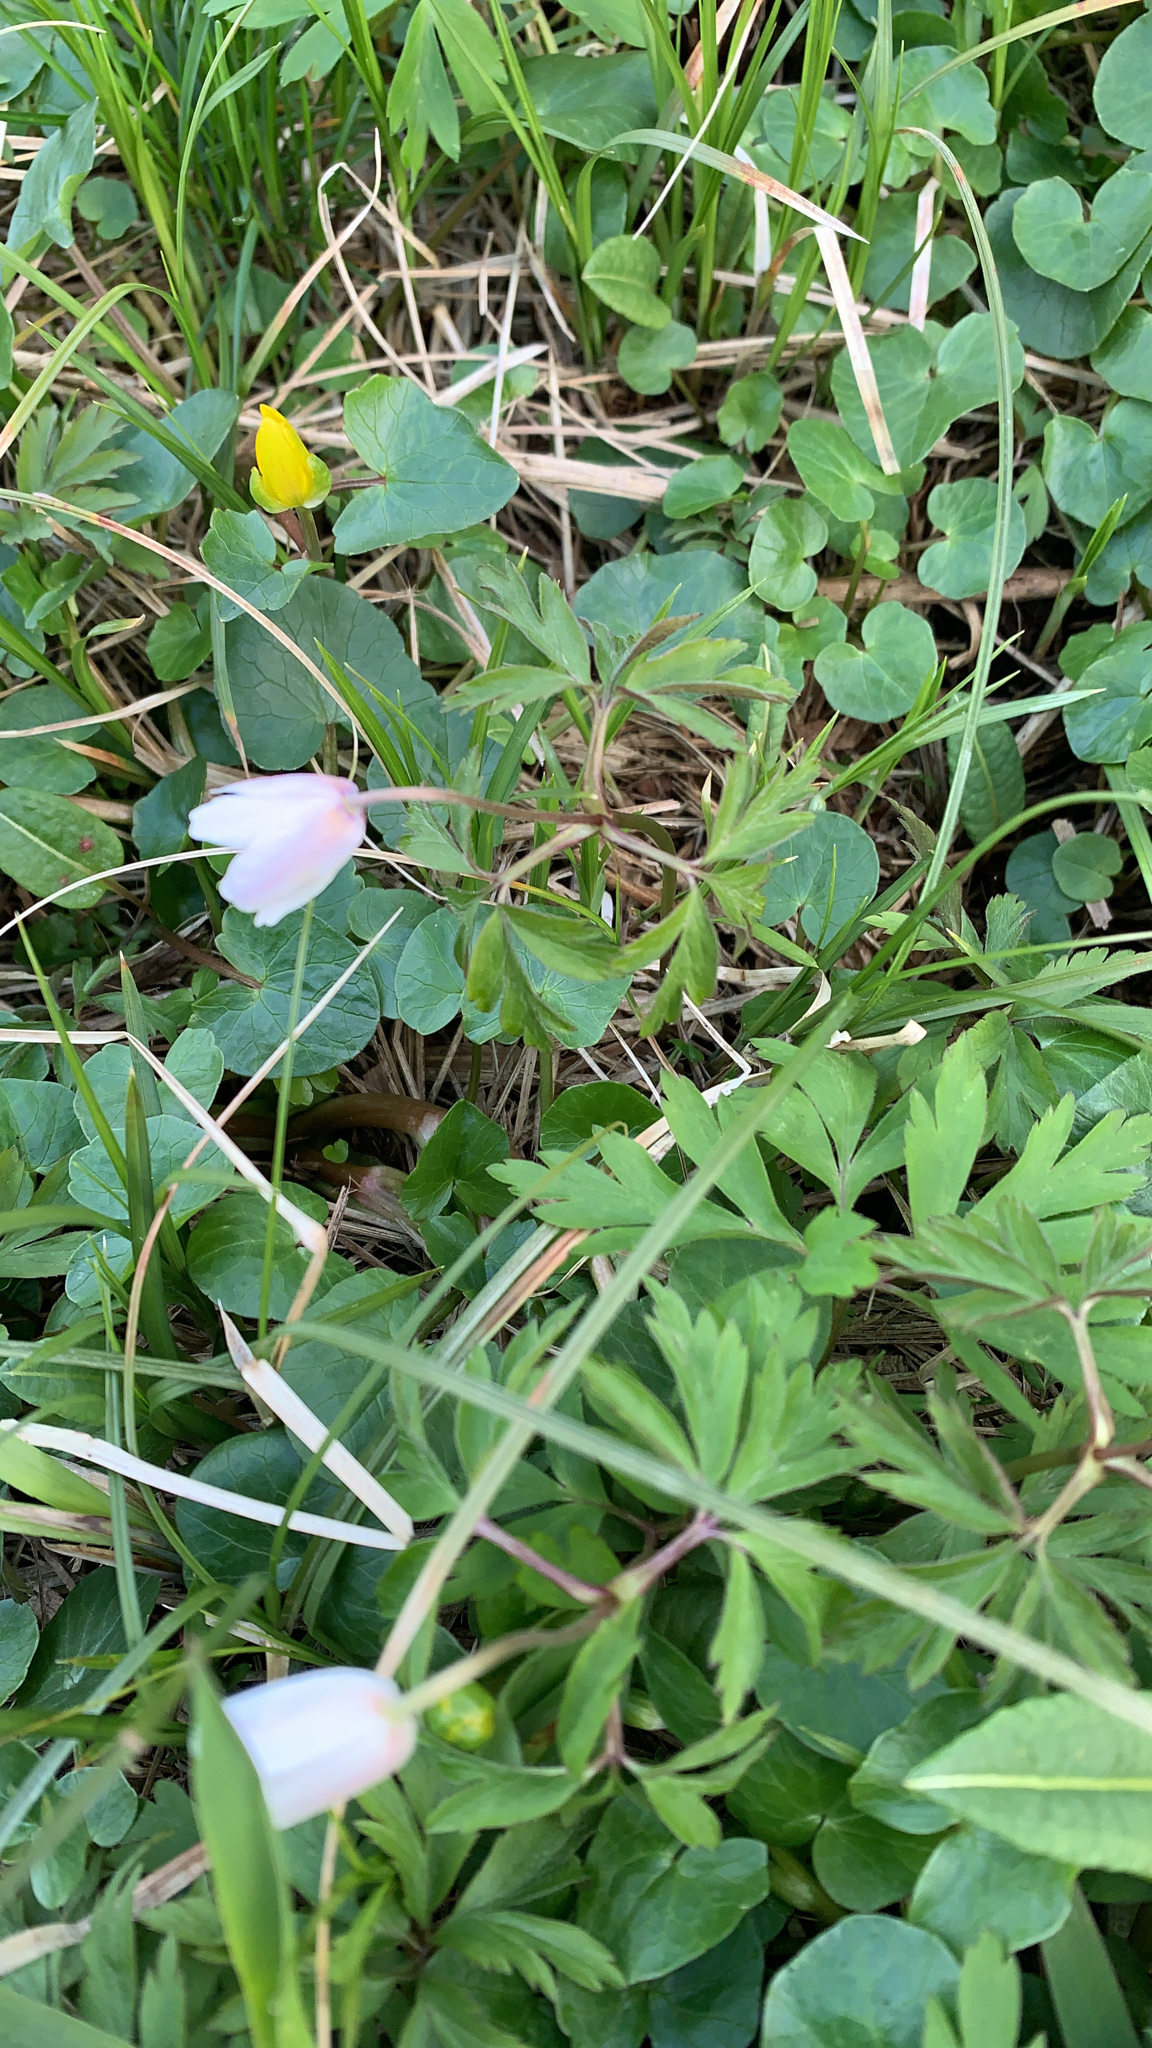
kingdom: Plantae
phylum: Tracheophyta
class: Magnoliopsida
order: Ranunculales
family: Ranunculaceae
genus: Anemone
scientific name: Anemone nemorosa
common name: Wood anemone
